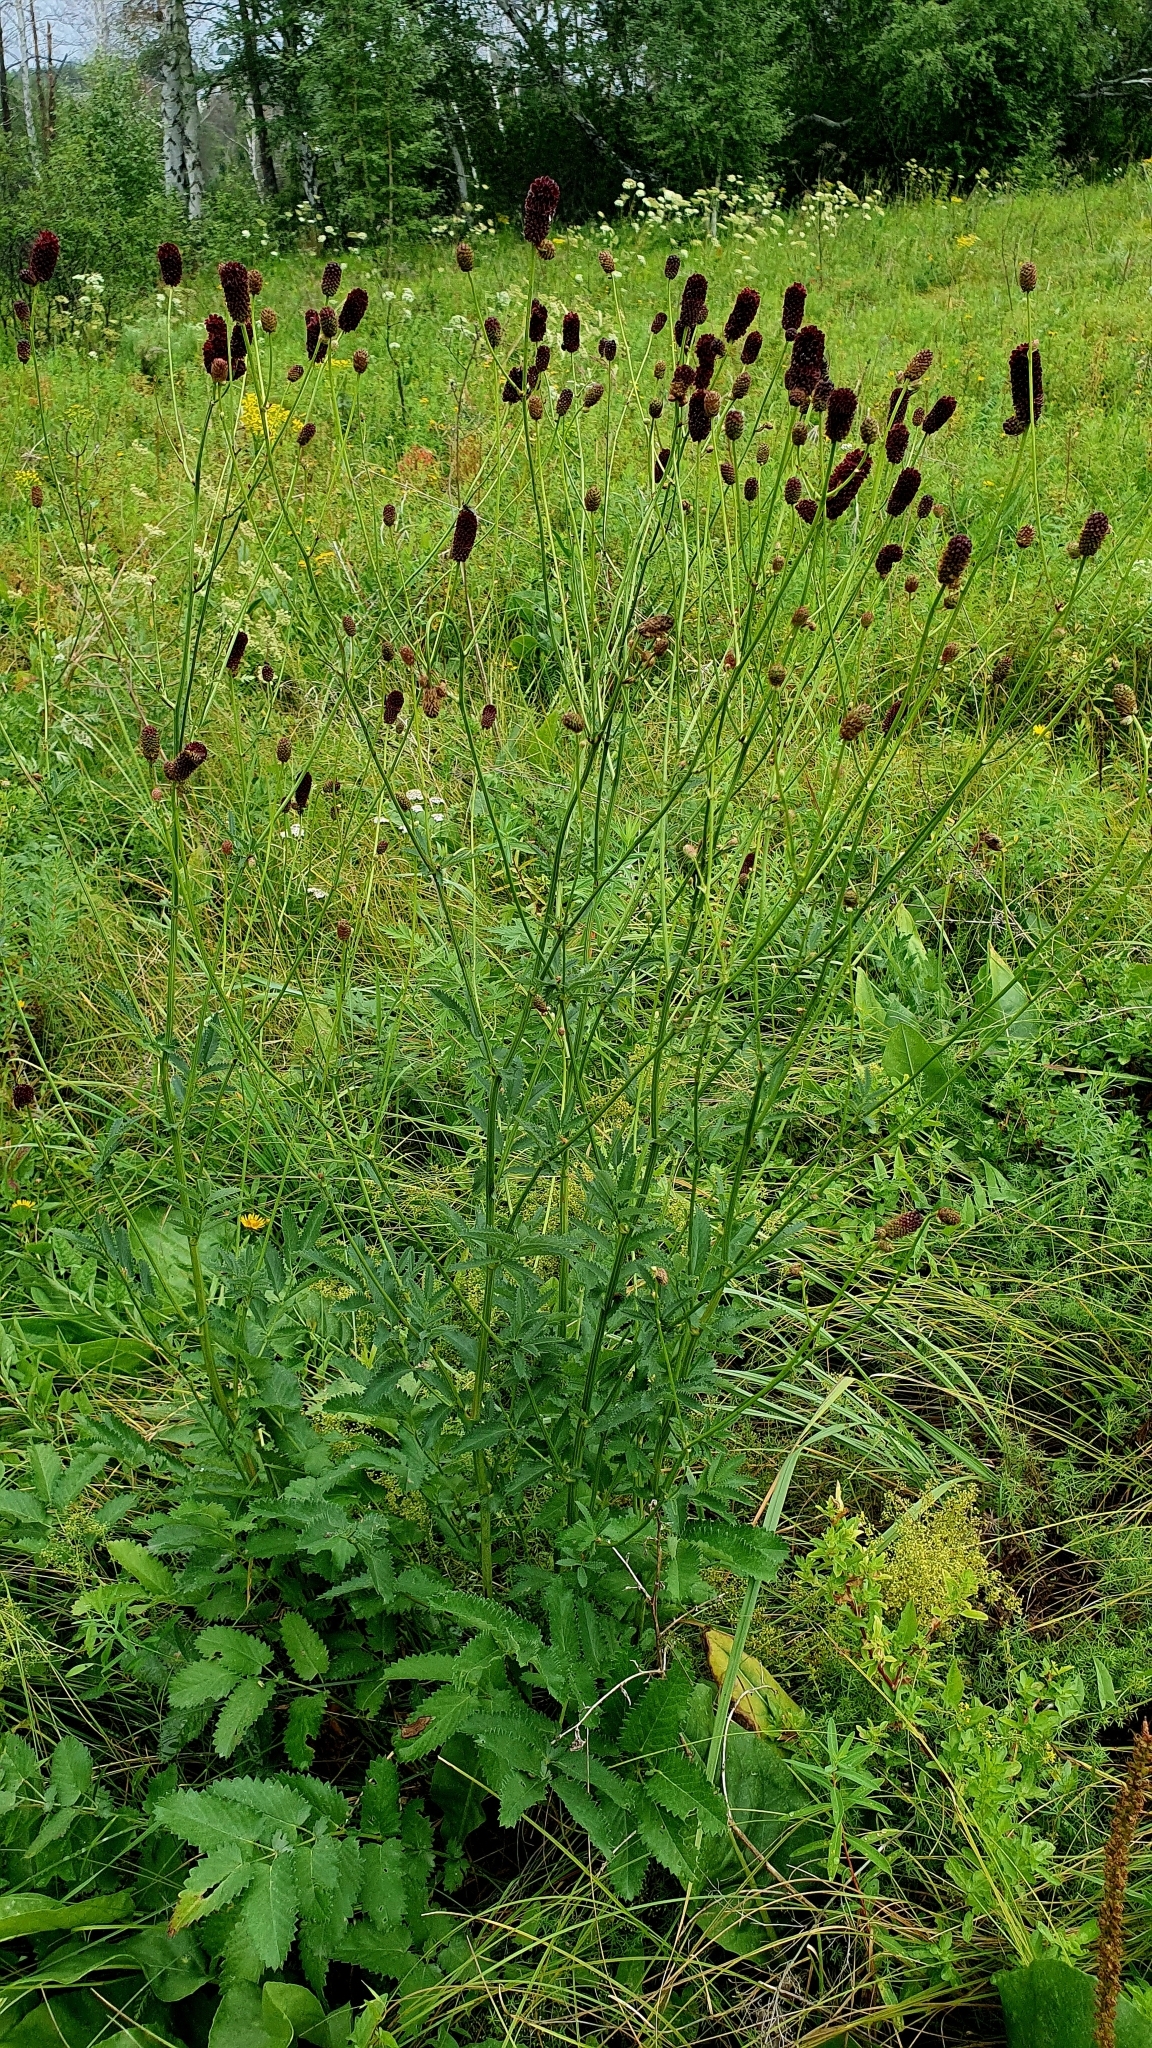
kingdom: Plantae
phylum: Tracheophyta
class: Magnoliopsida
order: Rosales
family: Rosaceae
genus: Sanguisorba
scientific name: Sanguisorba officinalis
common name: Great burnet
